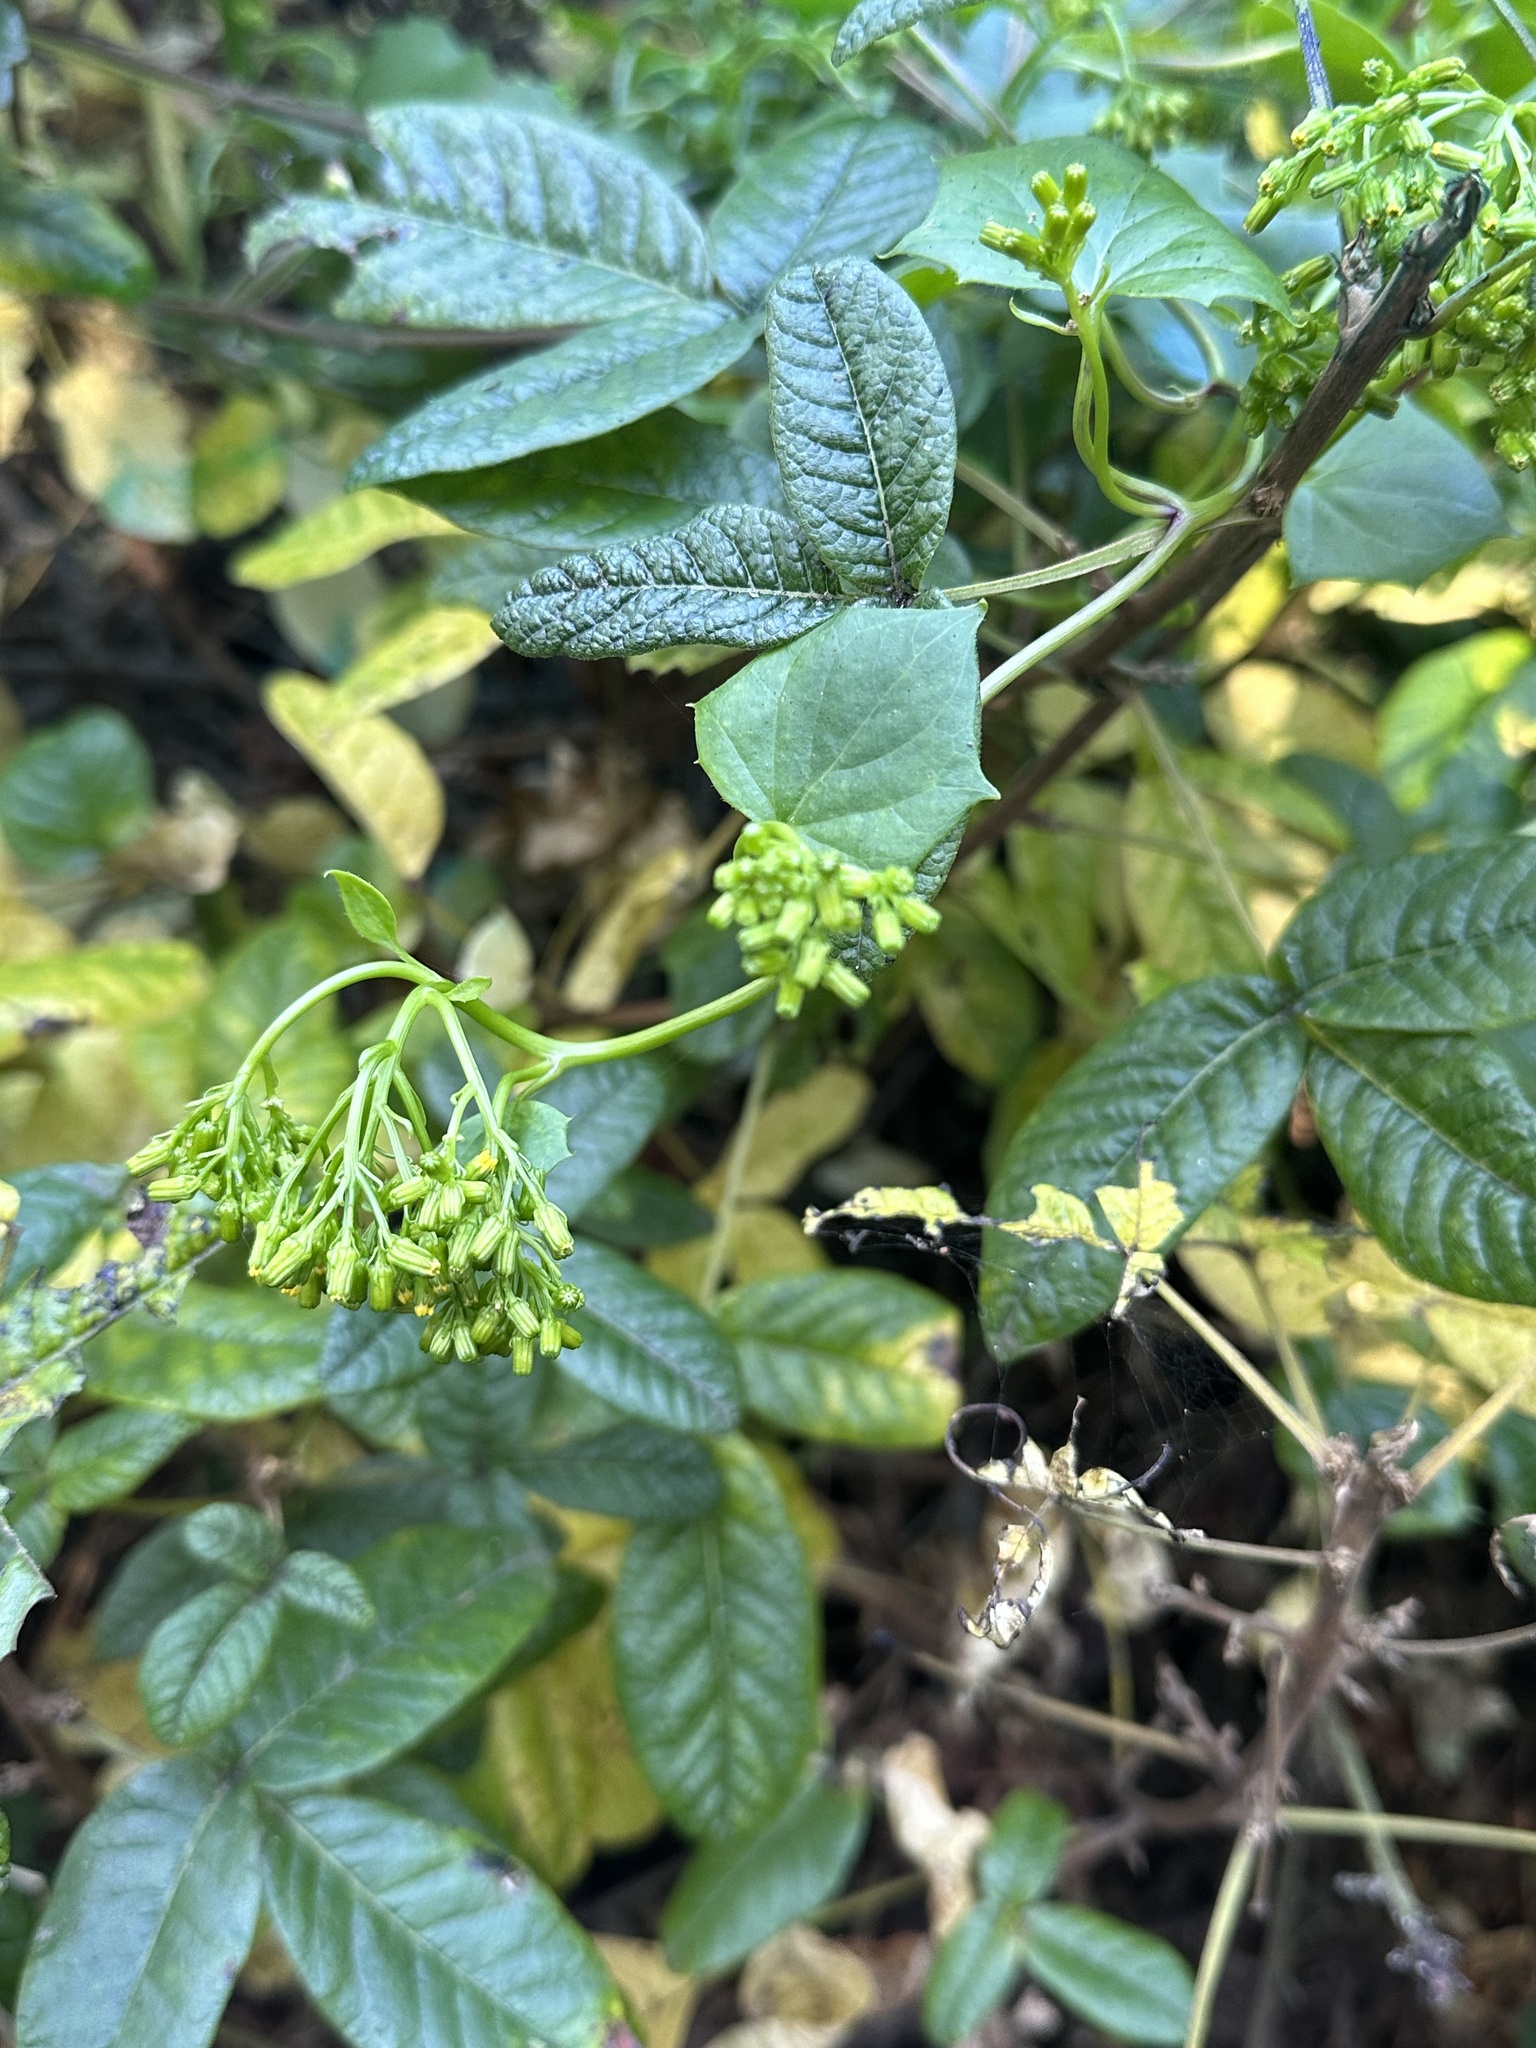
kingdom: Plantae
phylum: Tracheophyta
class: Magnoliopsida
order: Sapindales
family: Anacardiaceae
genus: Toxicodendron
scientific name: Toxicodendron diversilobum
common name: Pacific poison-oak
